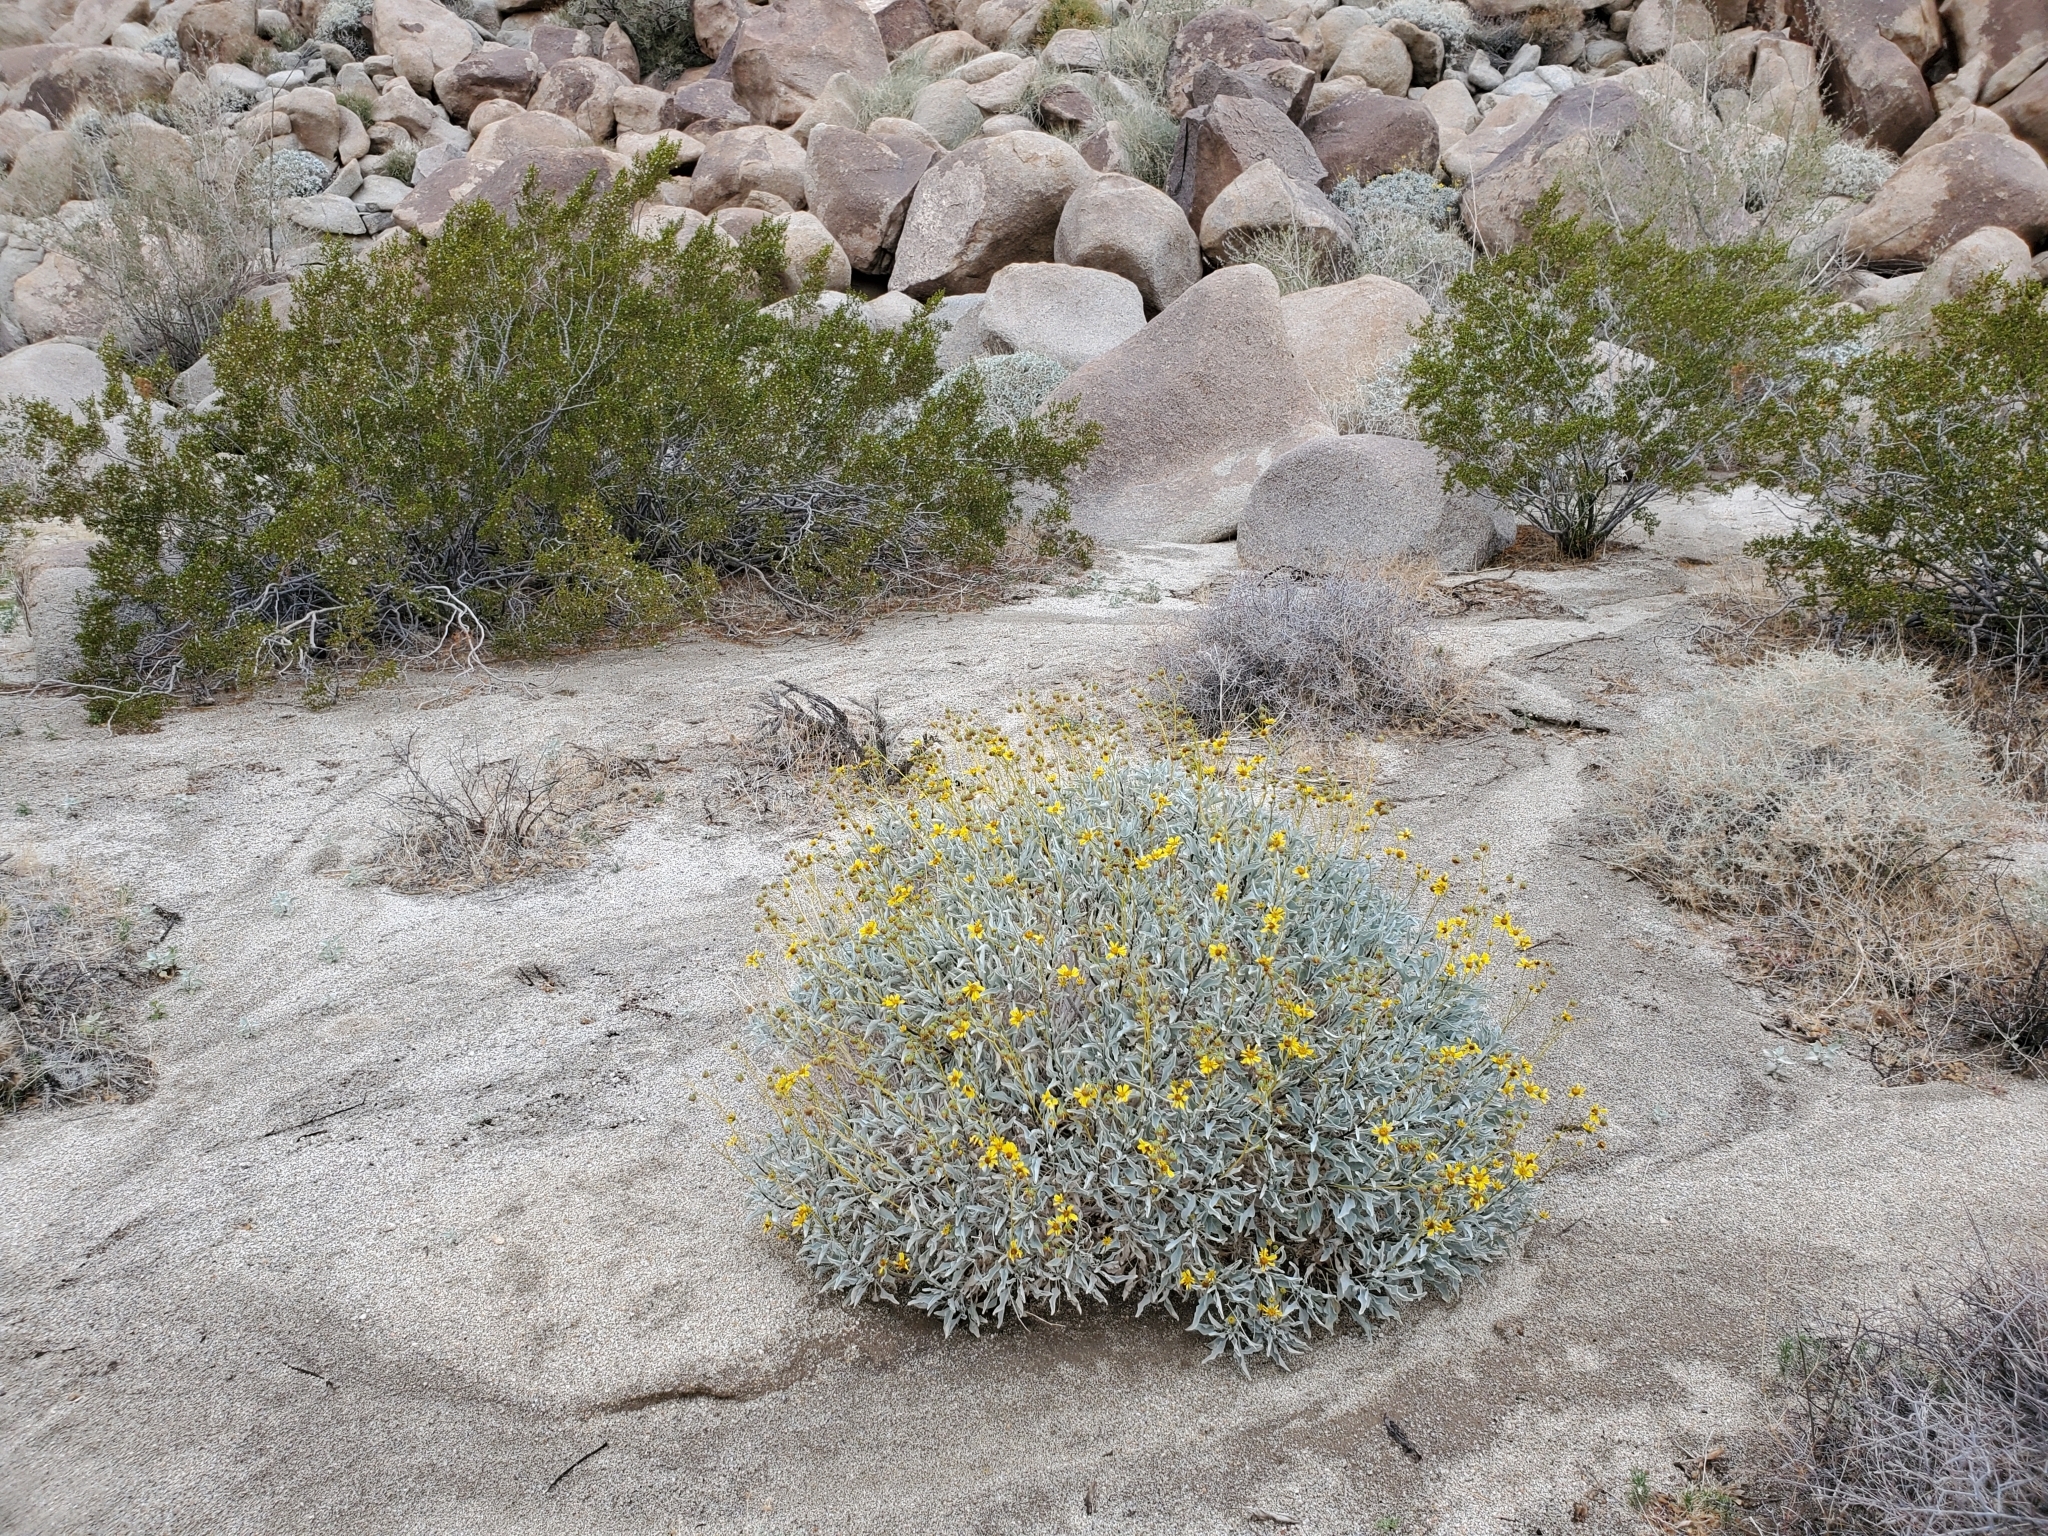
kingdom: Plantae
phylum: Tracheophyta
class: Magnoliopsida
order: Asterales
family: Asteraceae
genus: Encelia
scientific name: Encelia farinosa
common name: Brittlebush
